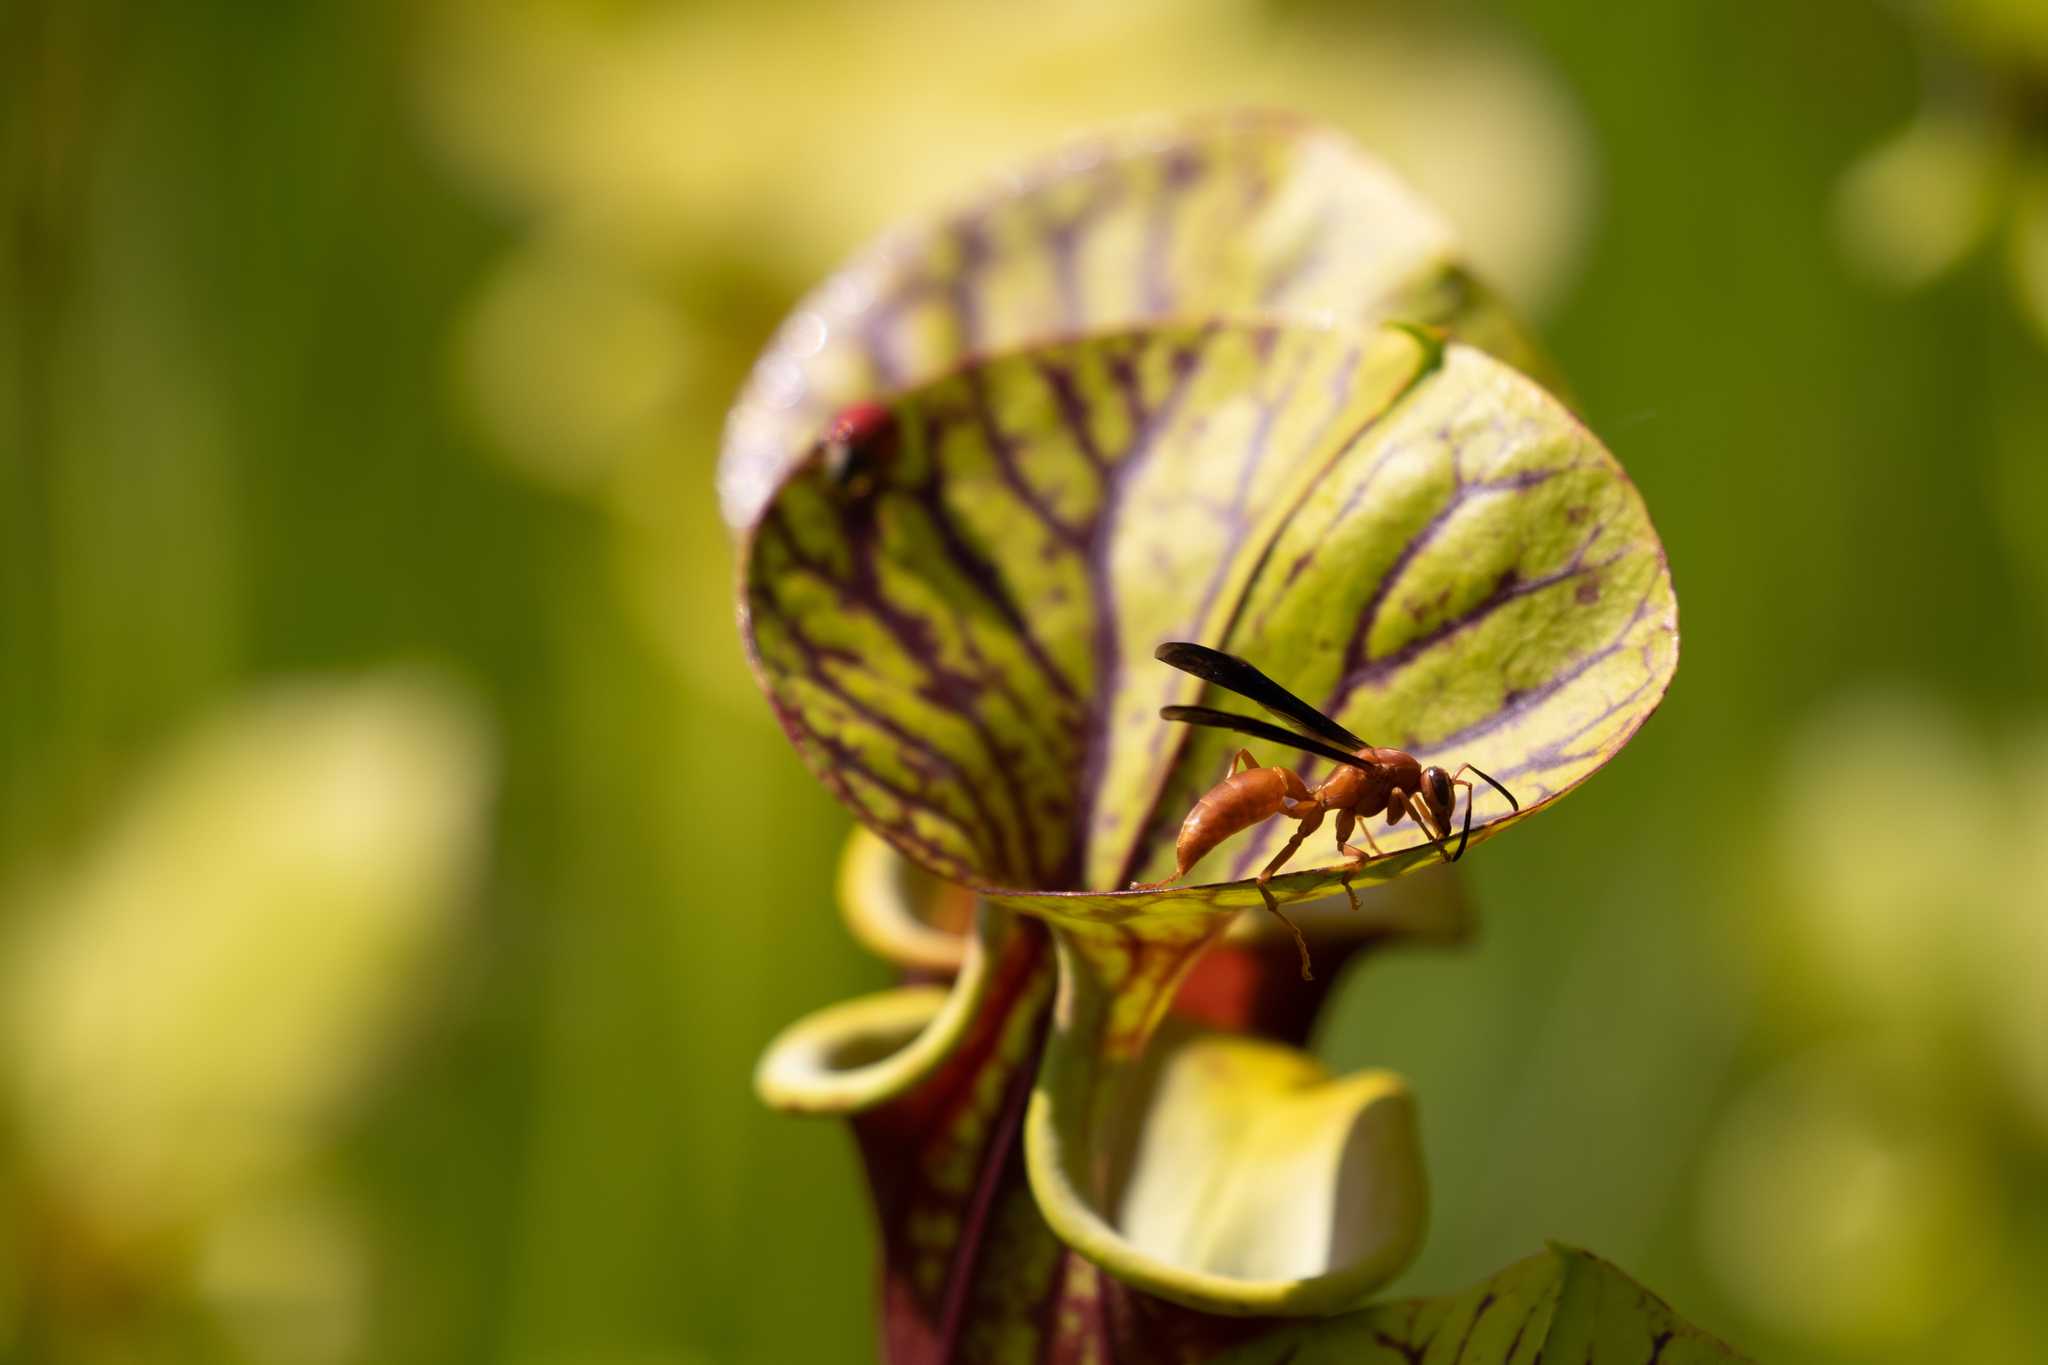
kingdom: Animalia
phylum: Arthropoda
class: Insecta
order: Hymenoptera
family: Vespidae
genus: Fuscopolistes
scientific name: Fuscopolistes
